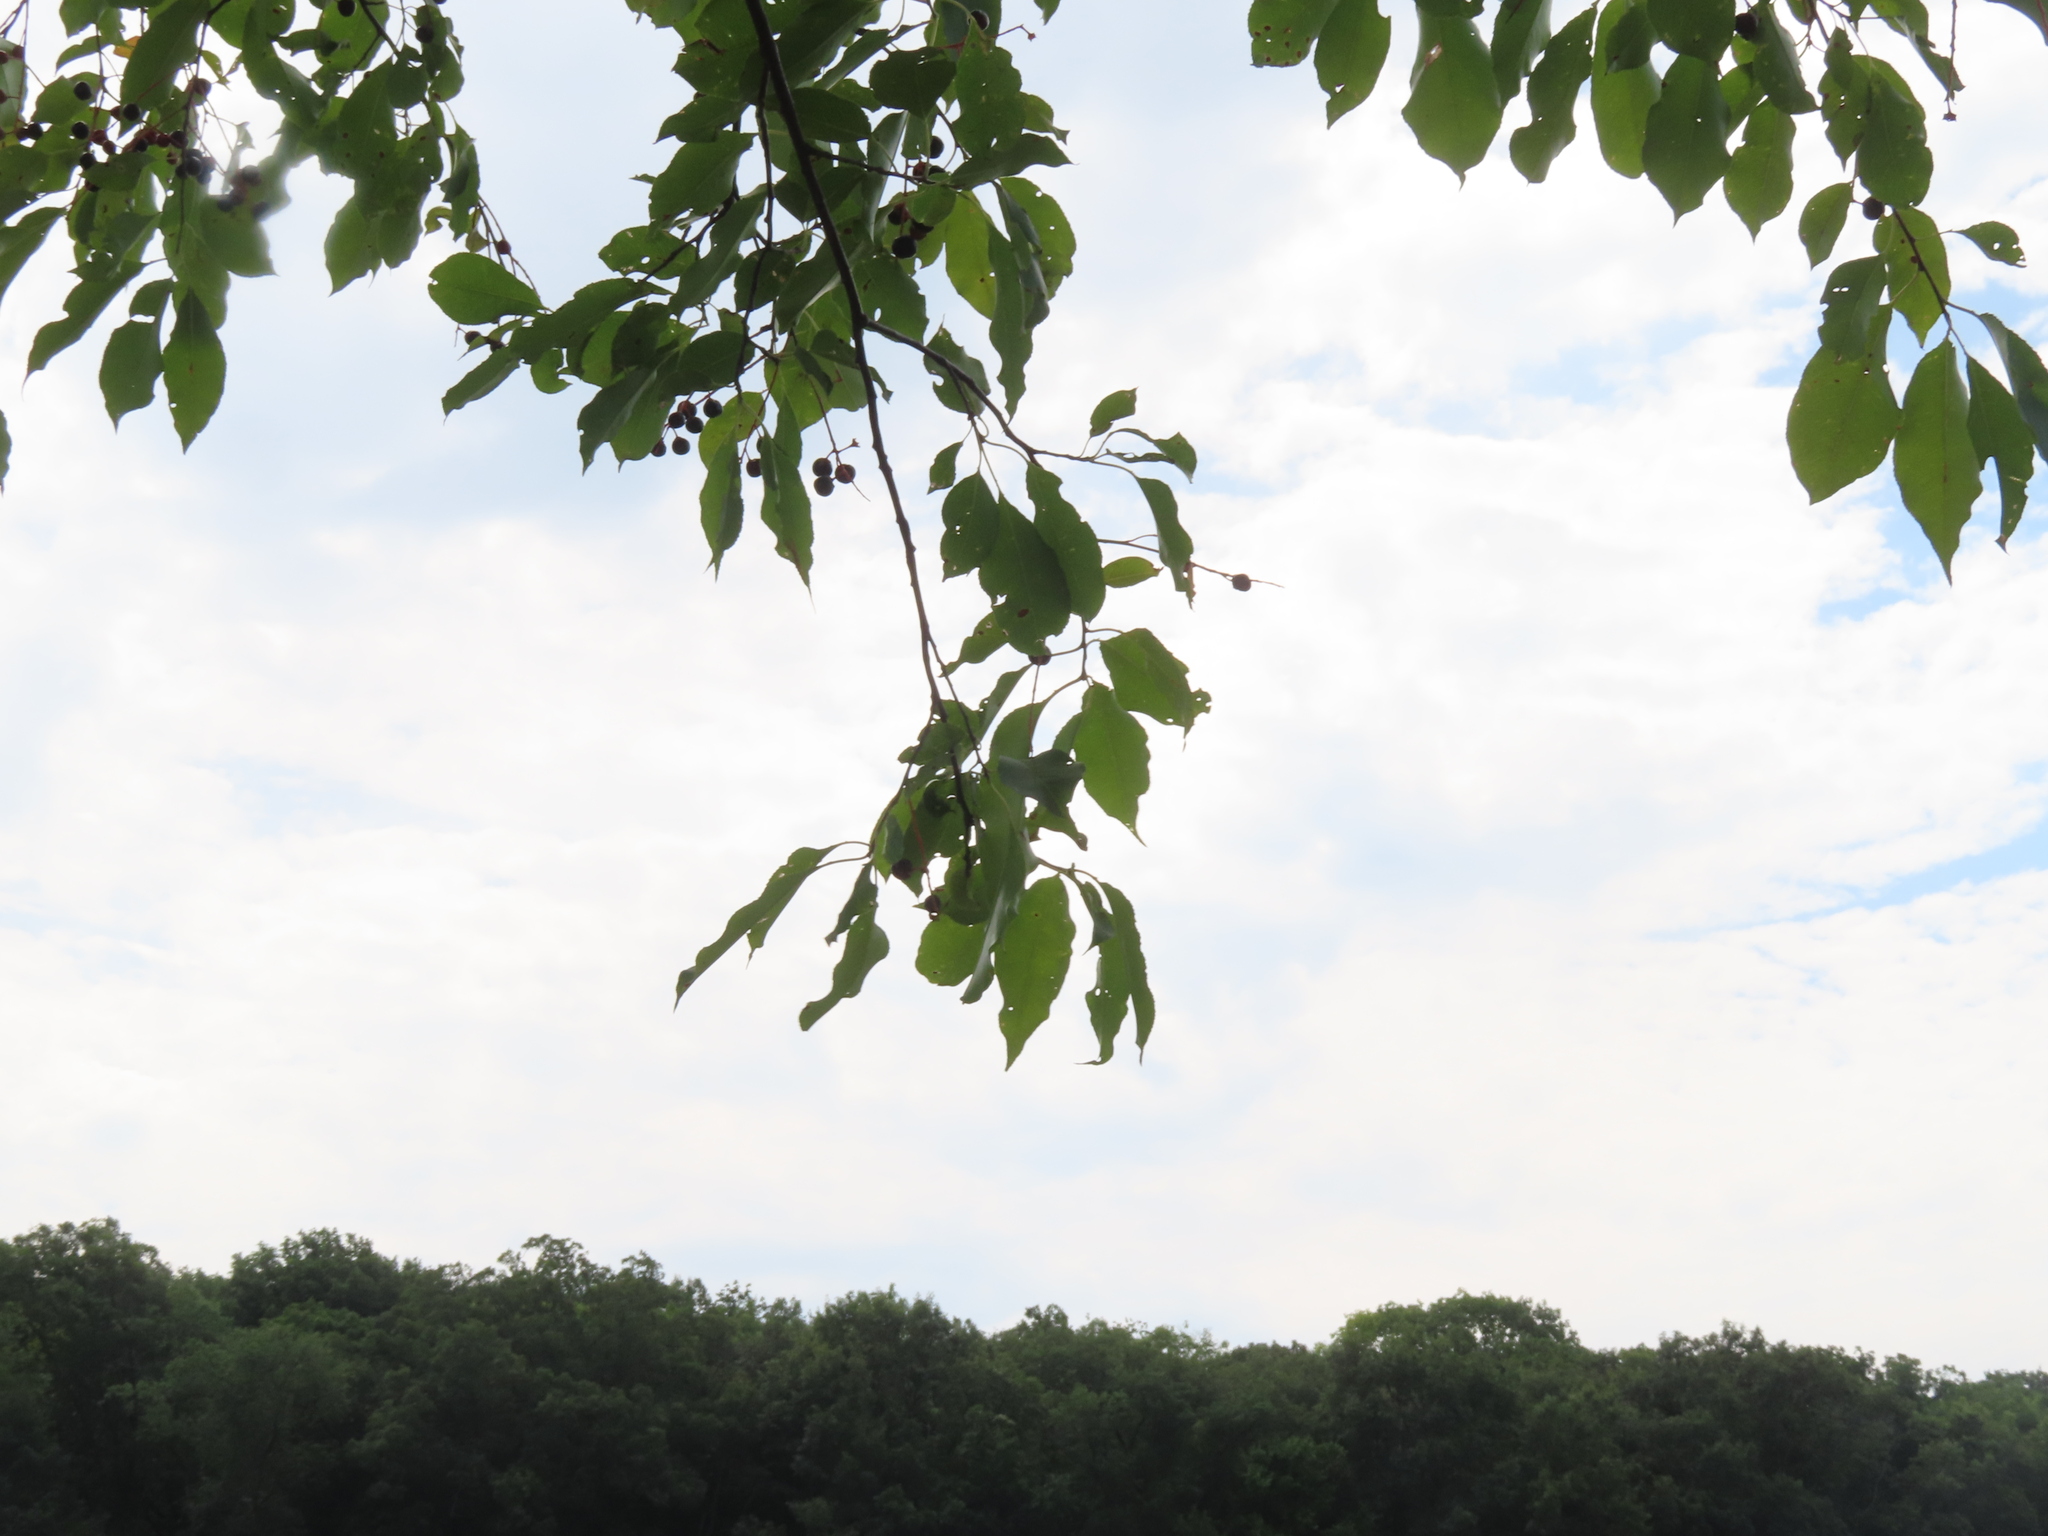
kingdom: Plantae
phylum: Tracheophyta
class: Magnoliopsida
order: Rosales
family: Rosaceae
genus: Prunus
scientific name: Prunus serotina
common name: Black cherry
